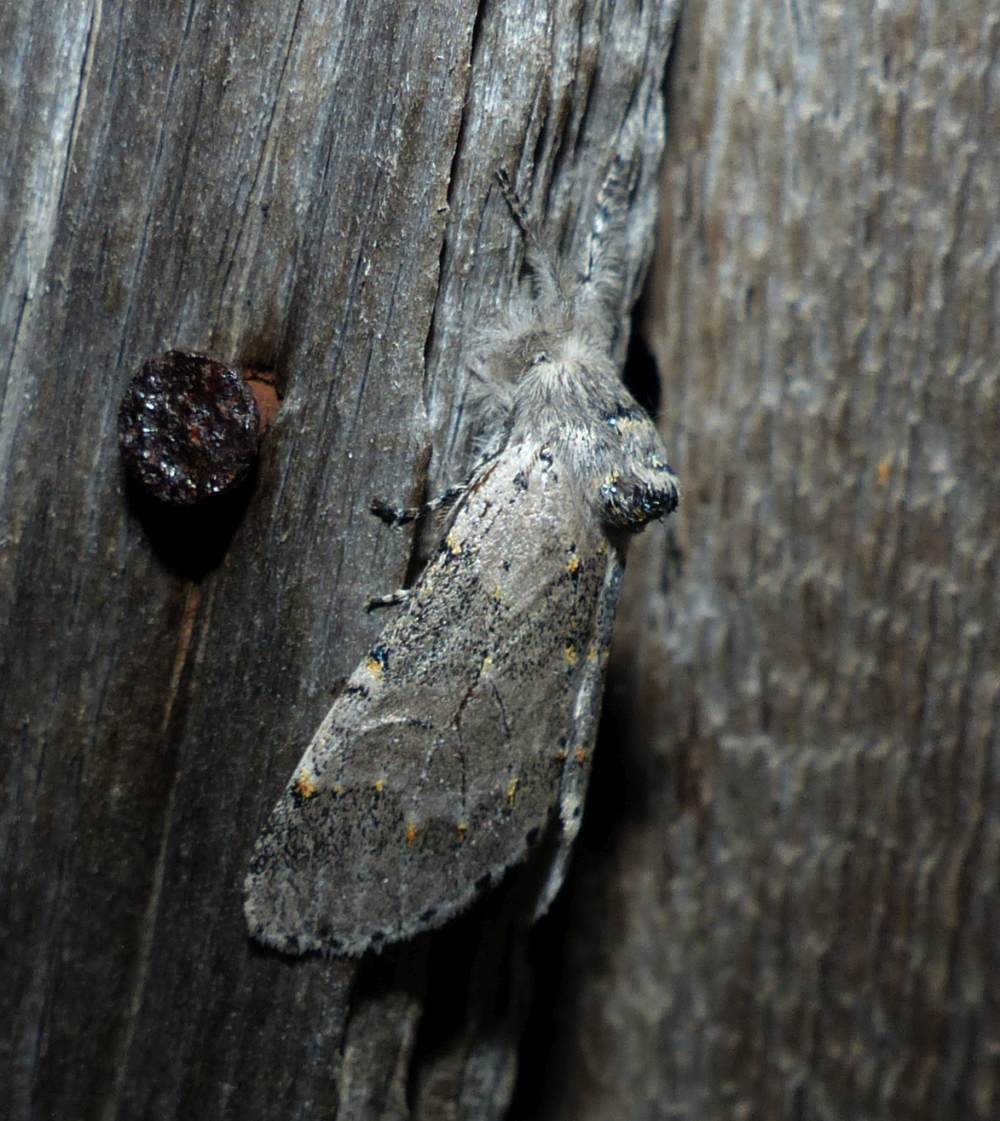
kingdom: Animalia
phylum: Arthropoda
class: Insecta
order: Lepidoptera
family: Notodontidae
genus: Furcula
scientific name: Furcula cinerea
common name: Gray furcula
